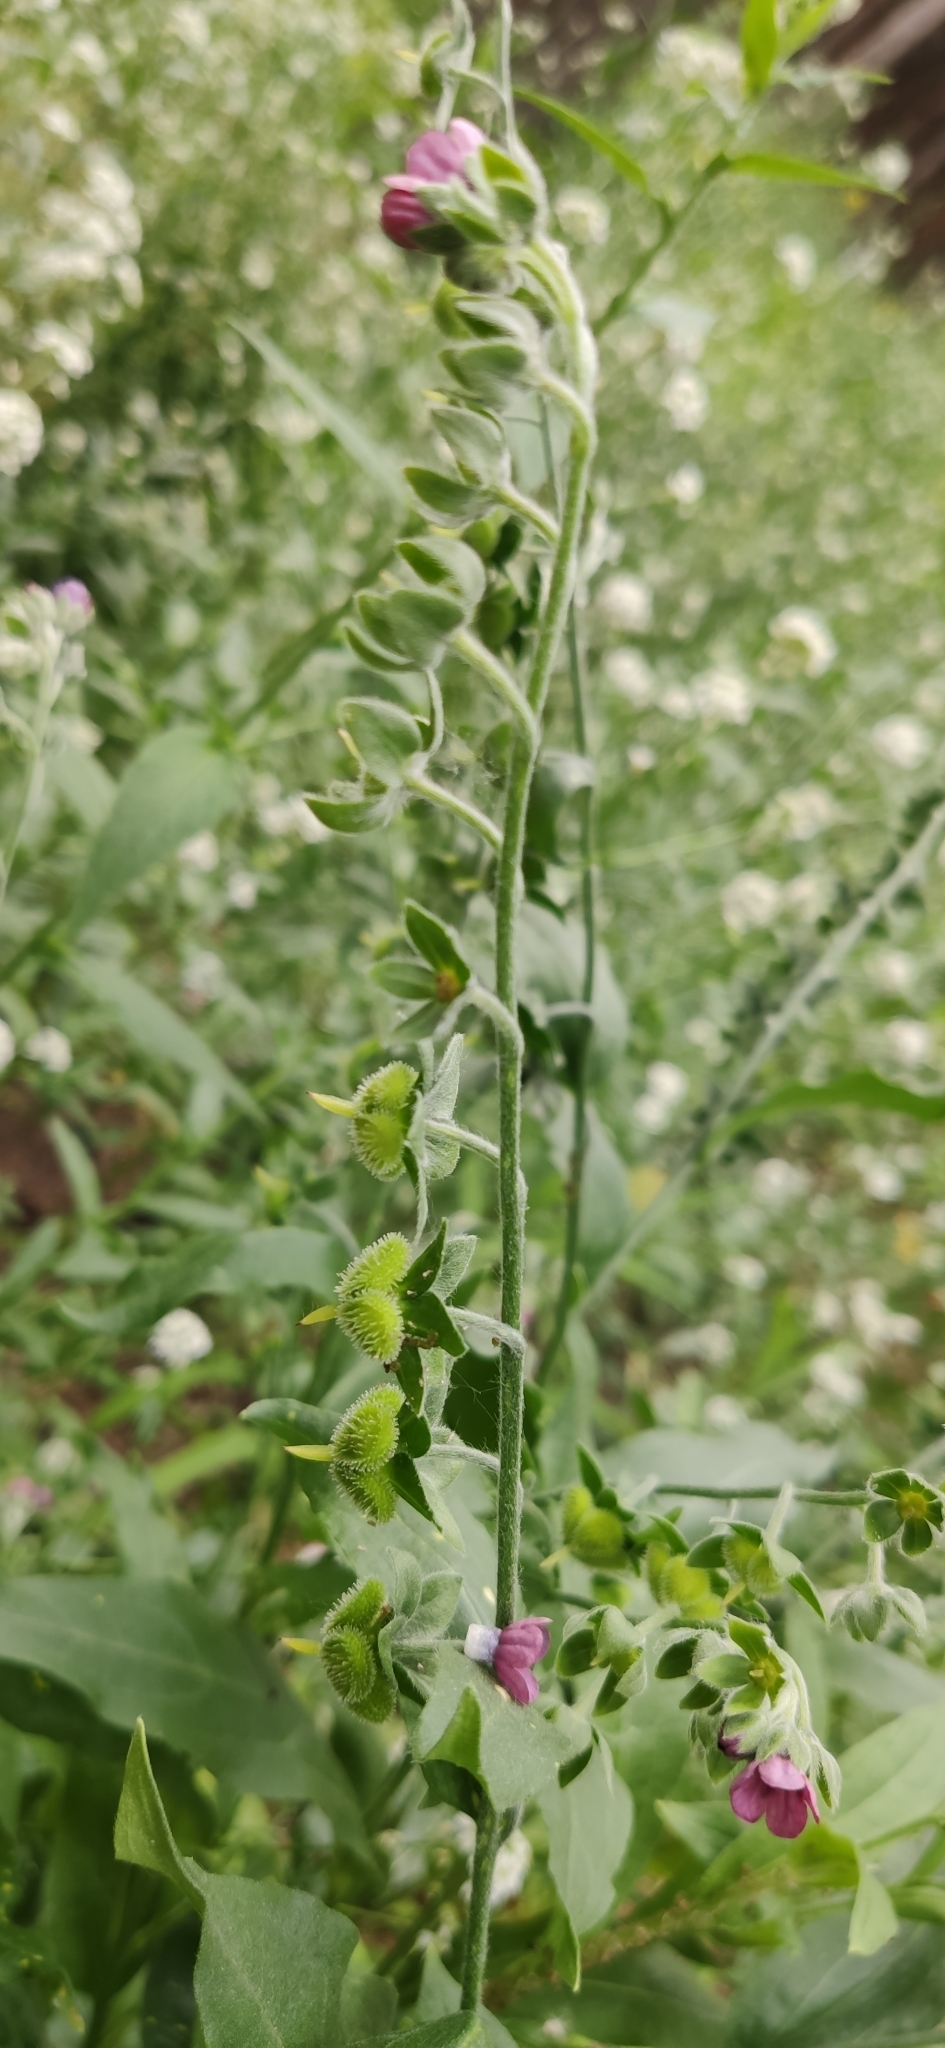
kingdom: Plantae
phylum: Tracheophyta
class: Magnoliopsida
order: Boraginales
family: Boraginaceae
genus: Cynoglossum
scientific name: Cynoglossum officinale
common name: Hound's-tongue
